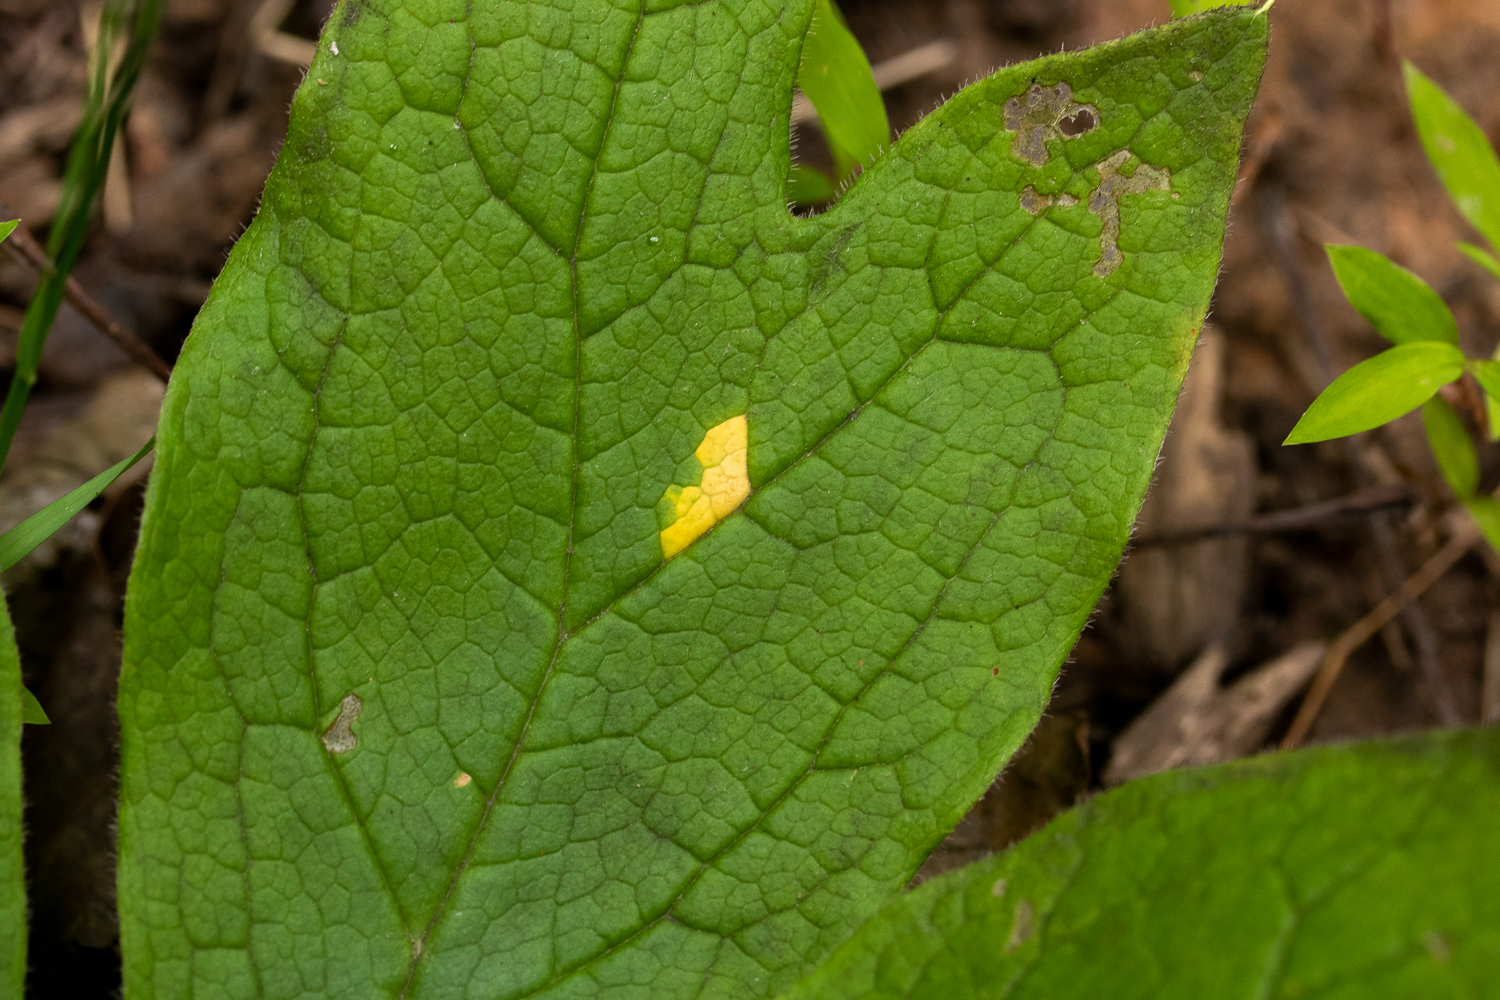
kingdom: Fungi
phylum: Basidiomycota
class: Pucciniomycetes
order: Pucciniales
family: Pucciniaceae
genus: Puccinia
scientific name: Puccinia podophylli
